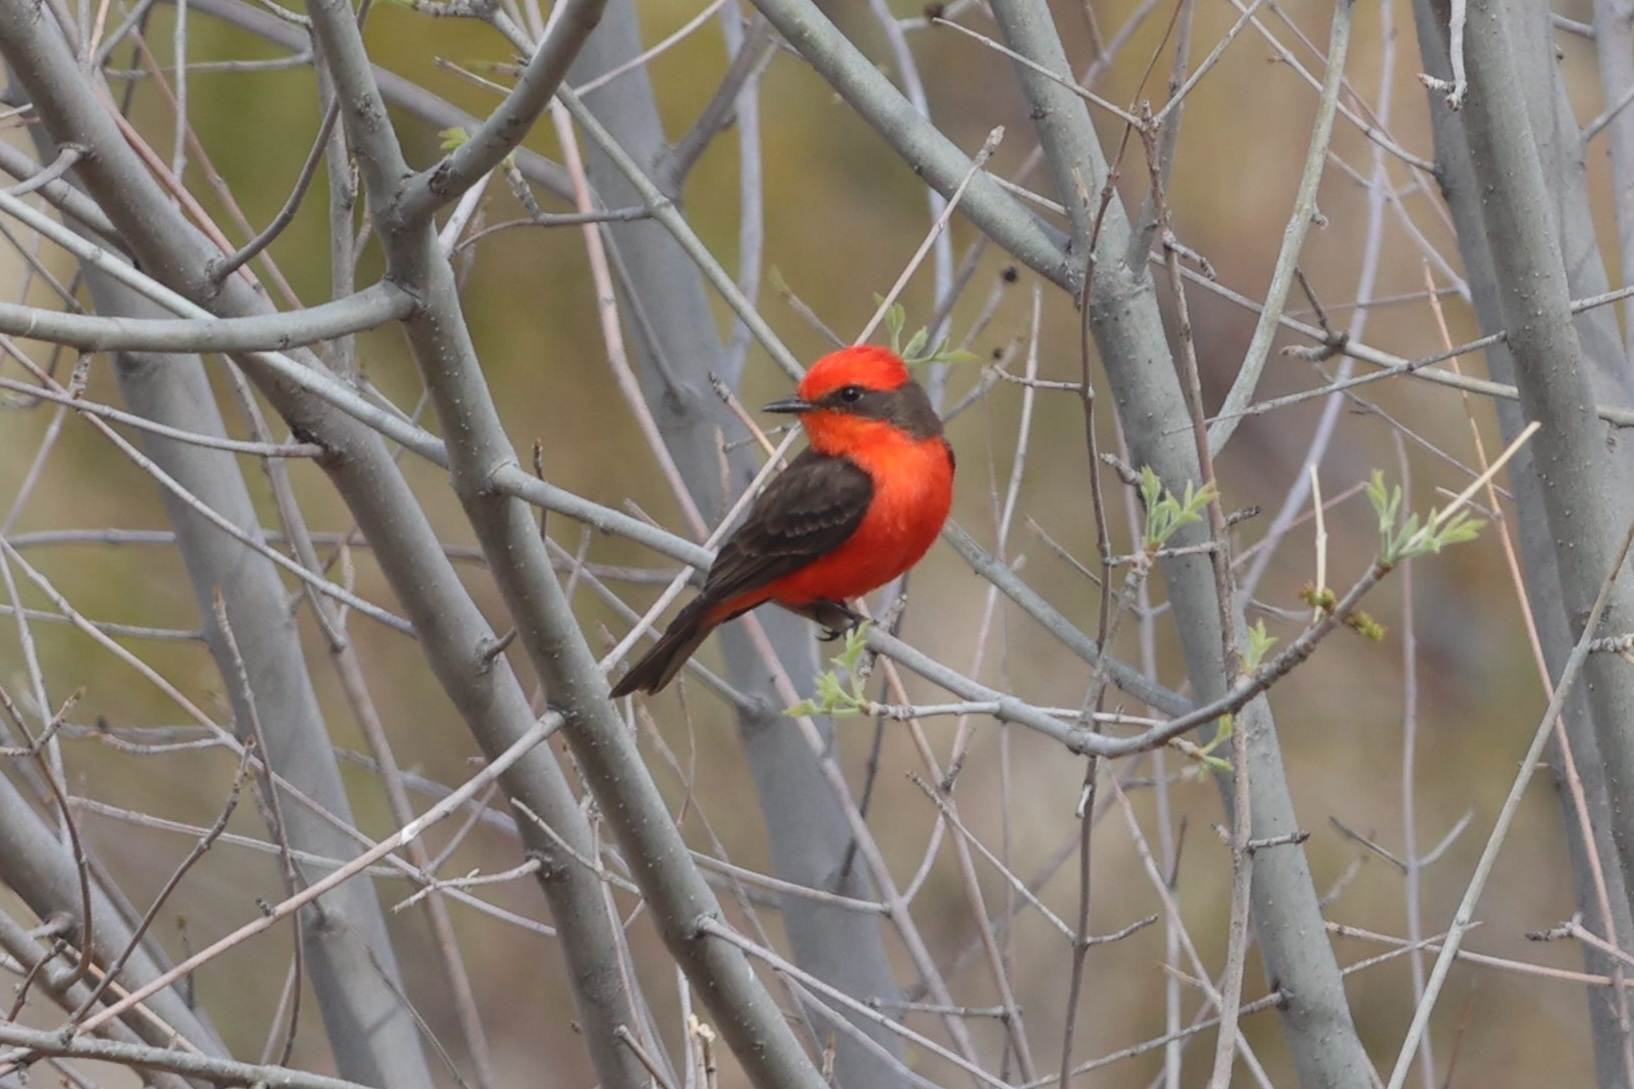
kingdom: Animalia
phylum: Chordata
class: Aves
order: Passeriformes
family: Tyrannidae
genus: Pyrocephalus
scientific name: Pyrocephalus rubinus
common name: Vermilion flycatcher
